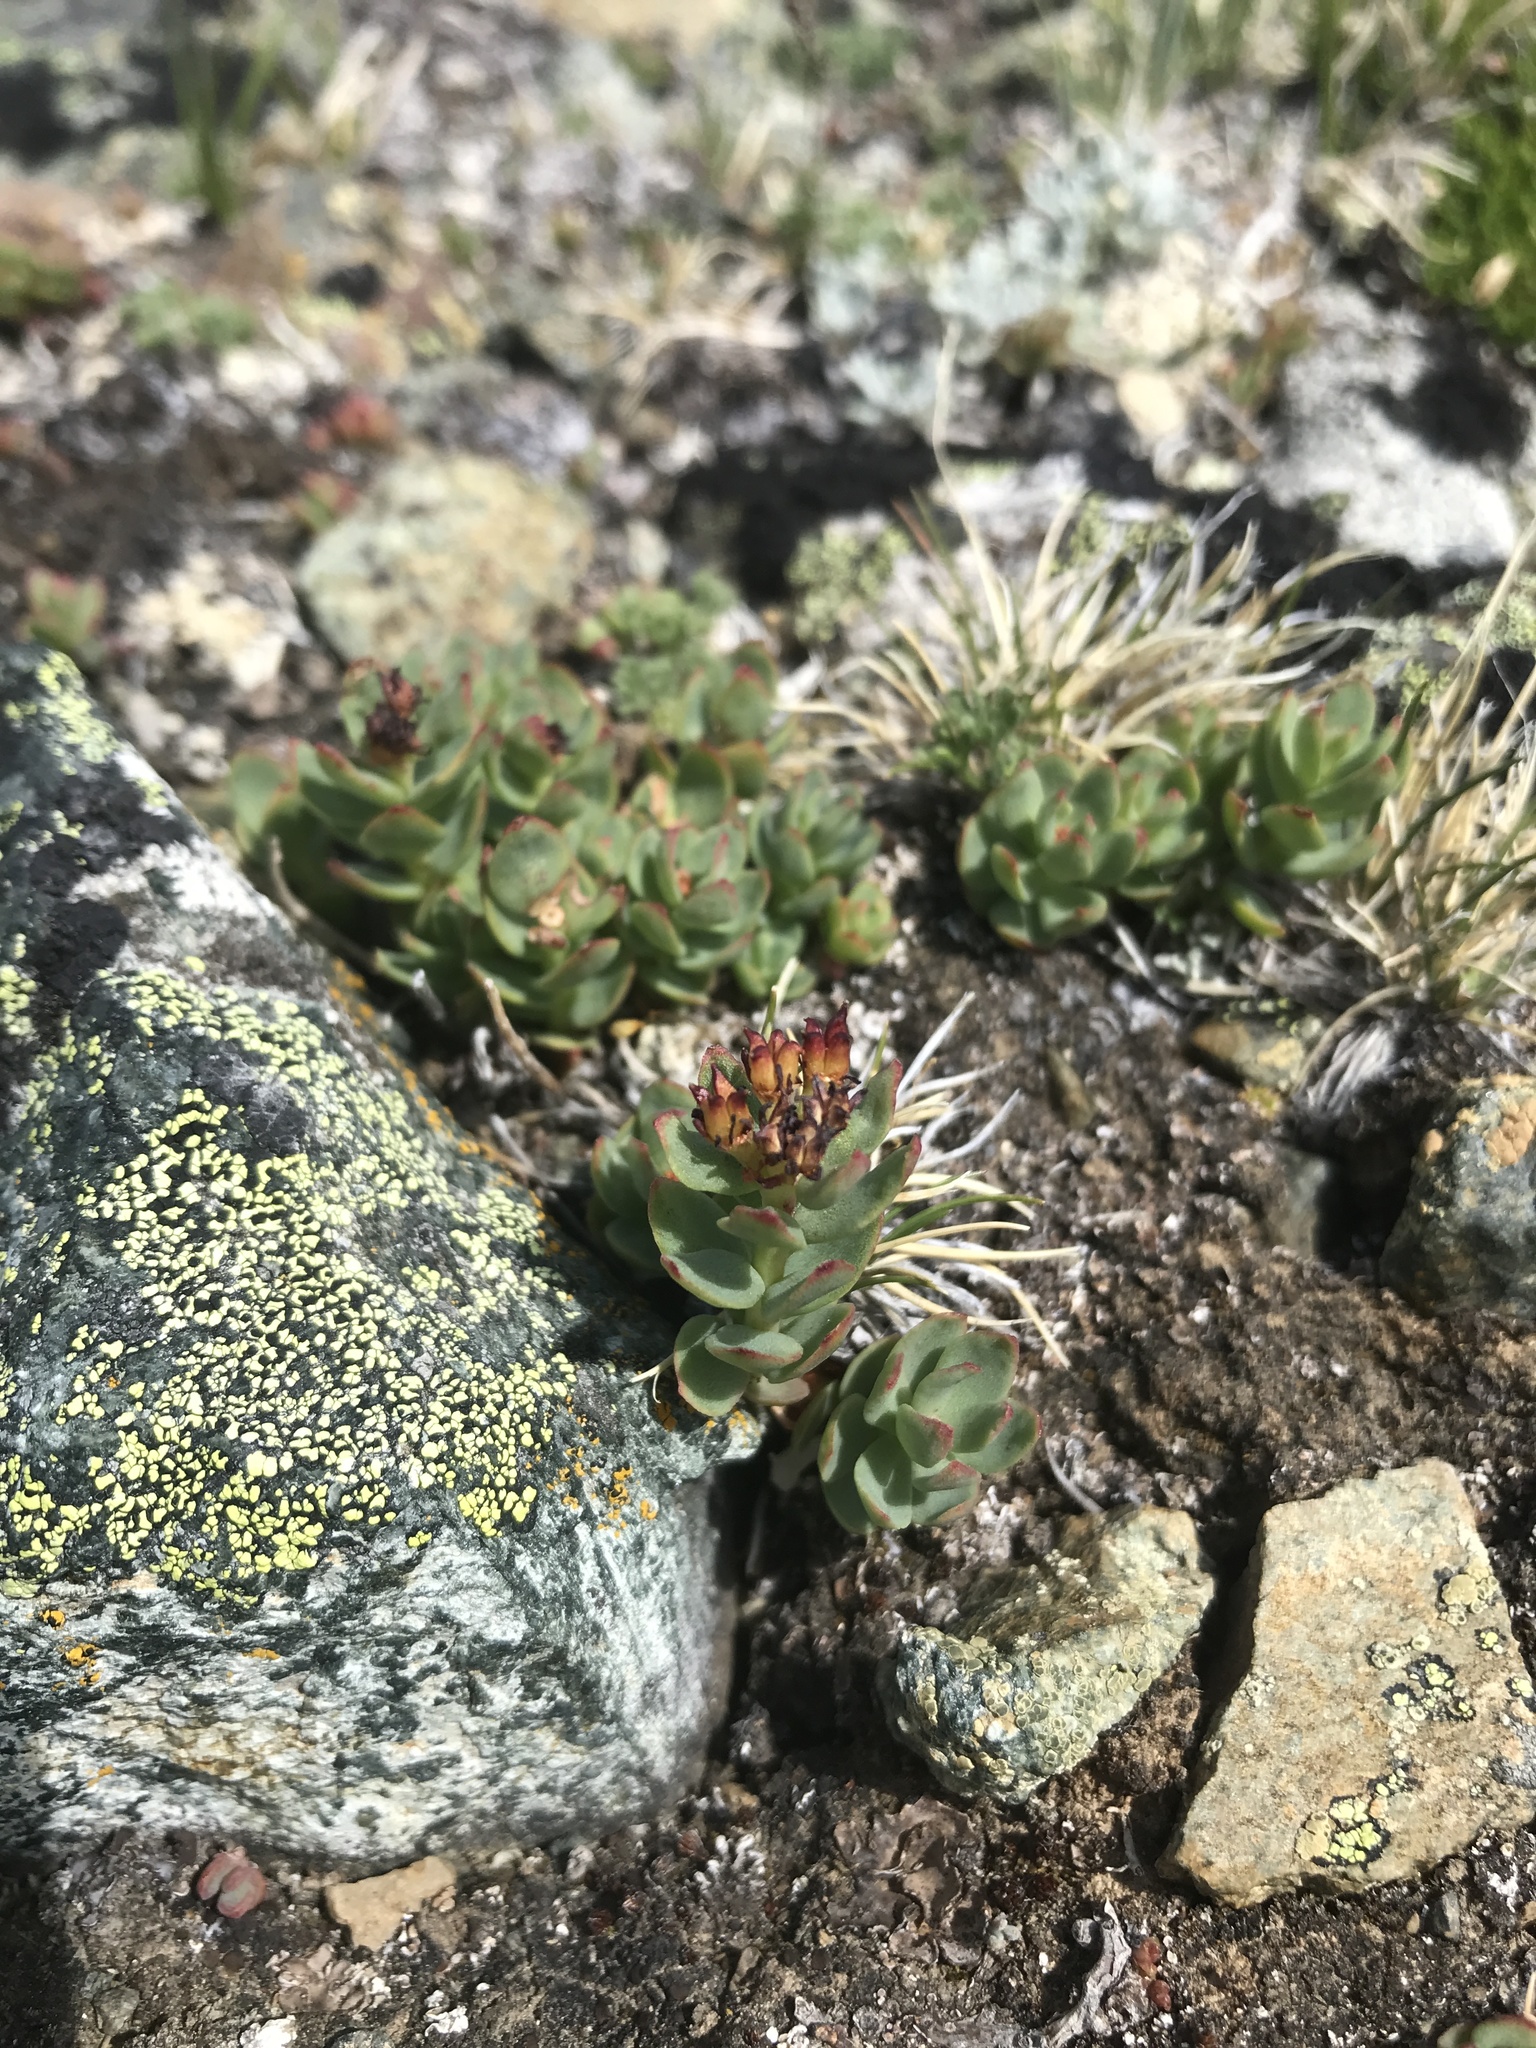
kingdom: Plantae
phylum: Tracheophyta
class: Magnoliopsida
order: Saxifragales
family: Crassulaceae
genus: Rhodiola
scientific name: Rhodiola integrifolia
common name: Western roseroot
